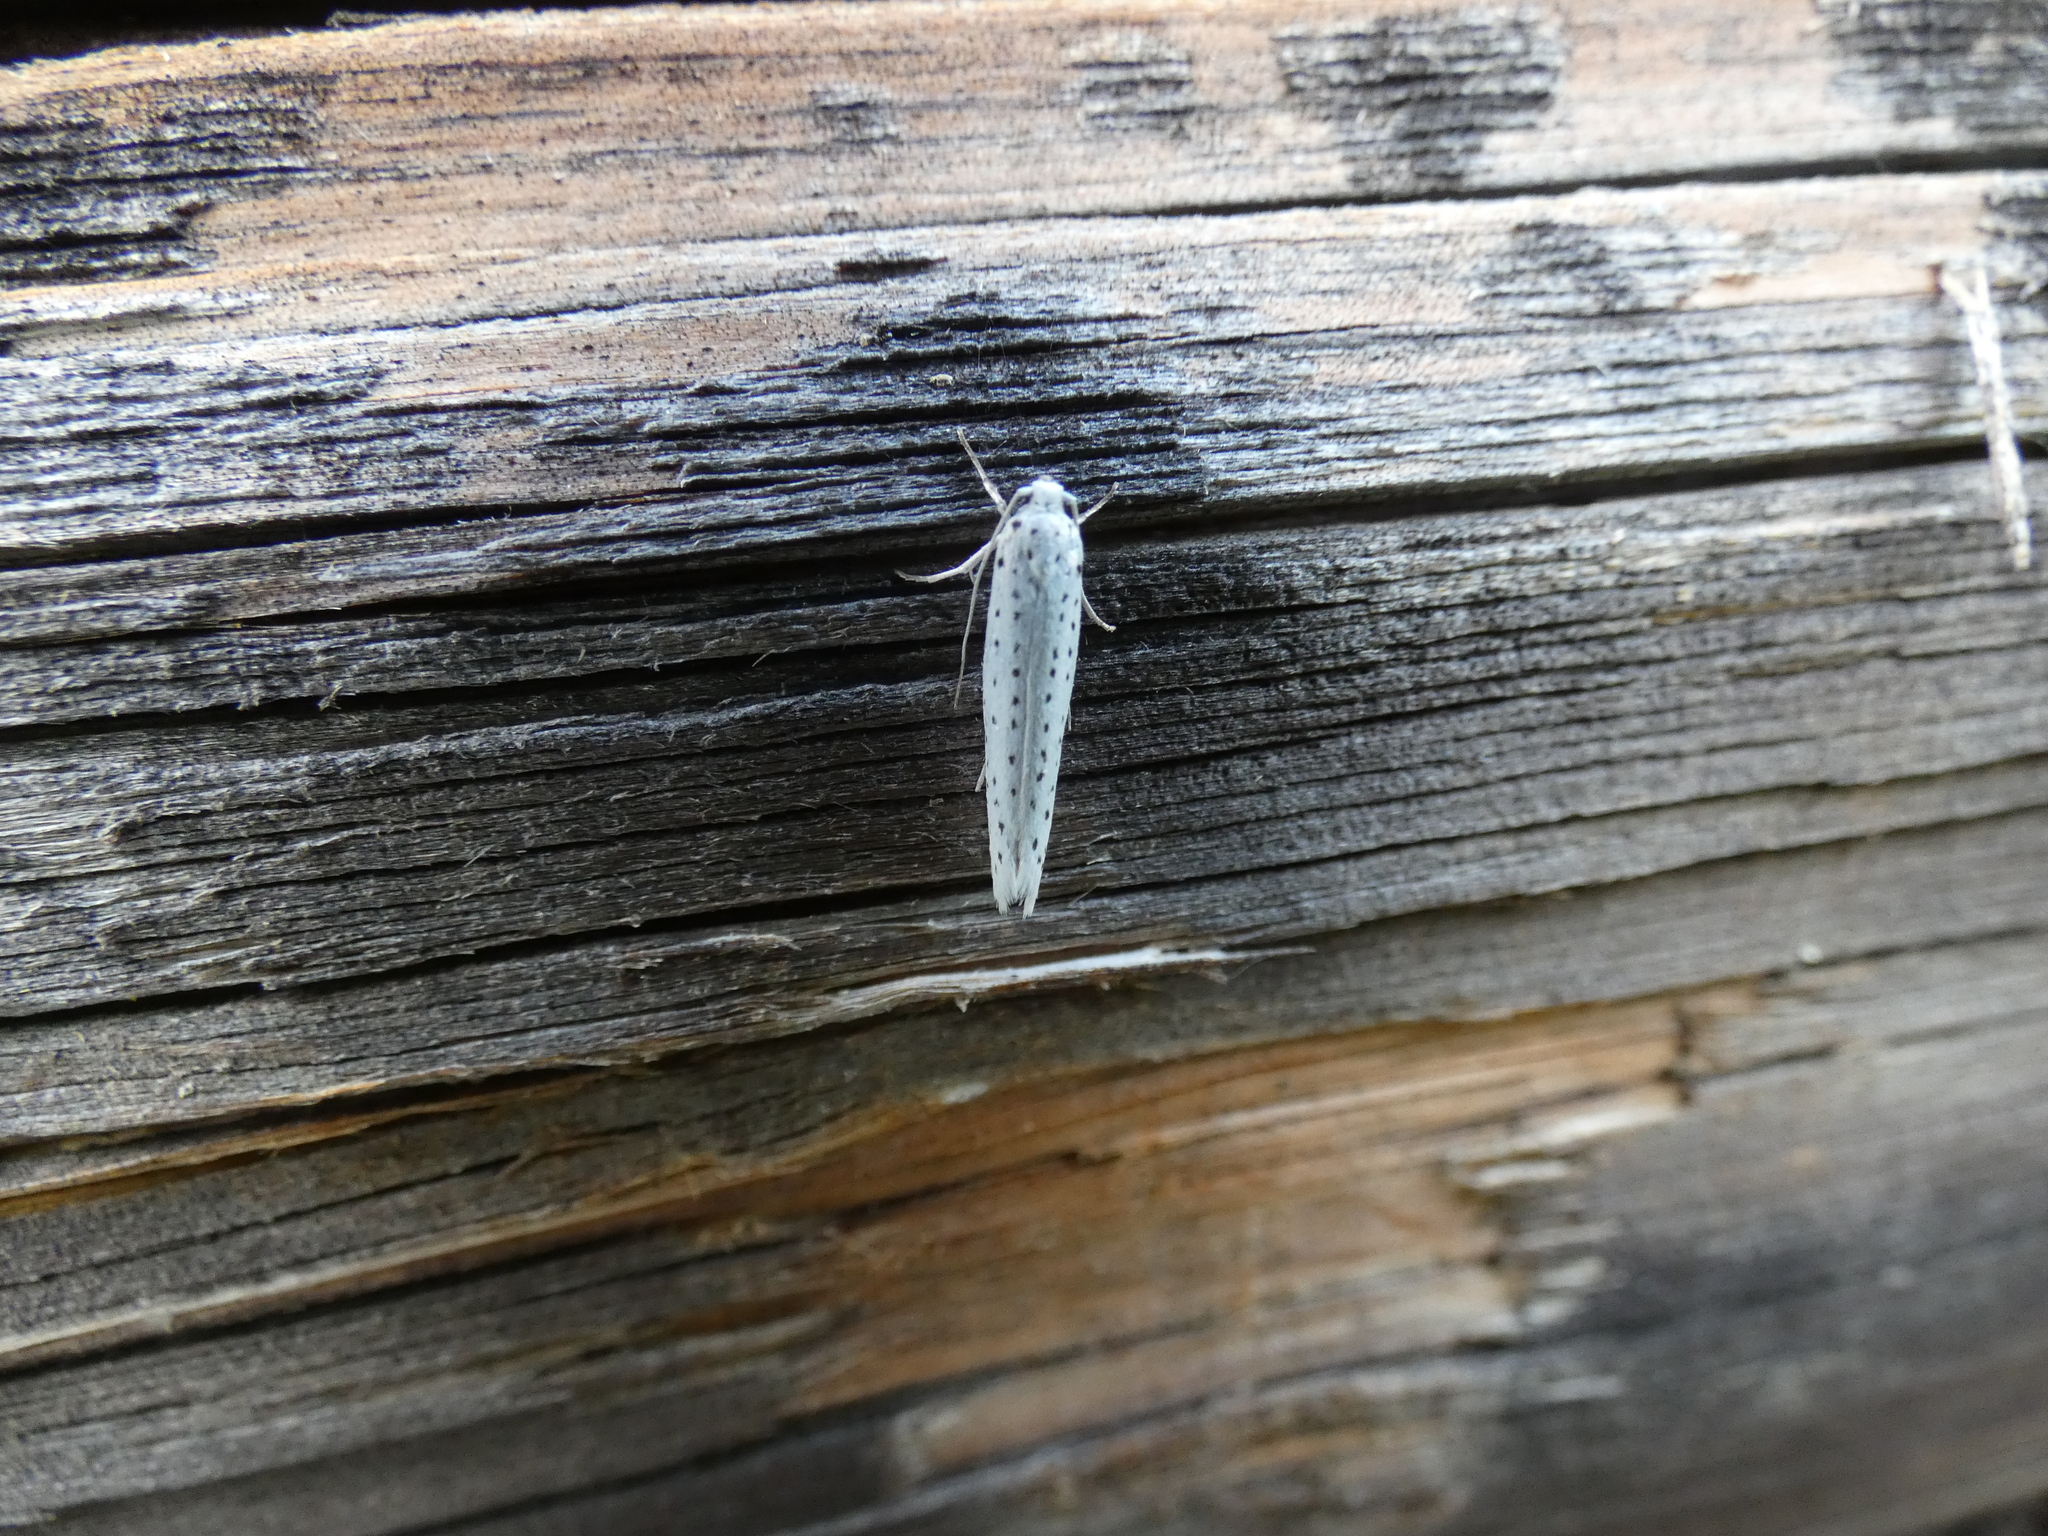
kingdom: Animalia
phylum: Arthropoda
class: Insecta
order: Lepidoptera
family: Yponomeutidae
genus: Yponomeuta
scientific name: Yponomeuta evonymella
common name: Bird-cherry ermine
